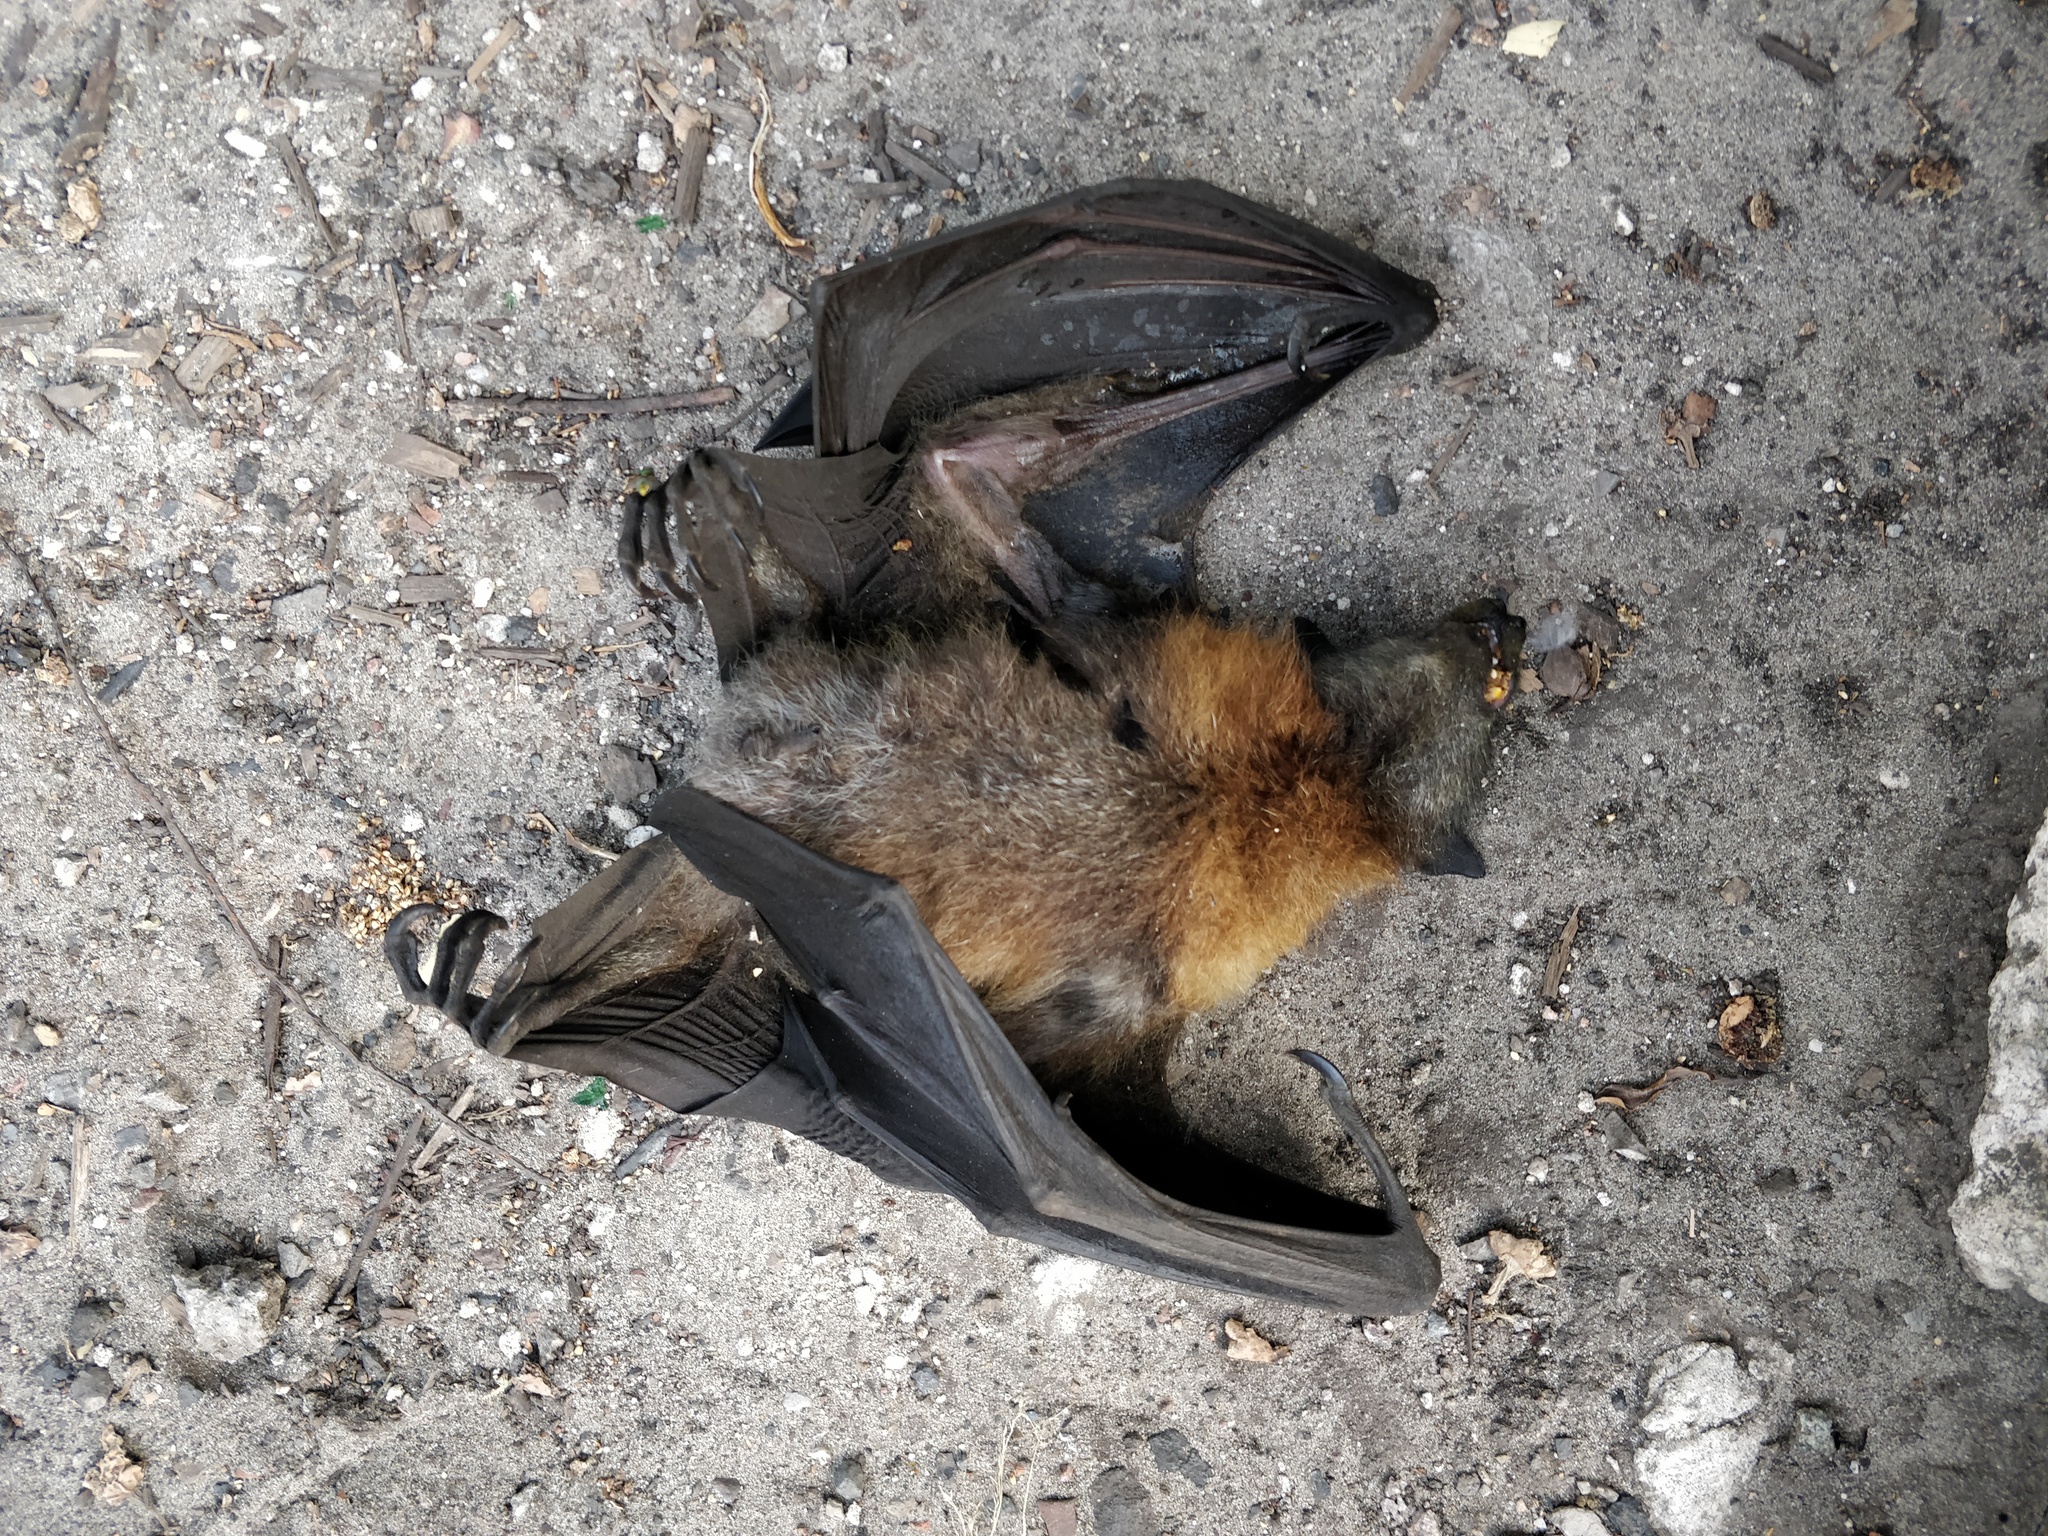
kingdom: Animalia
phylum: Chordata
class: Mammalia
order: Chiroptera
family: Pteropodidae
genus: Pteropus
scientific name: Pteropus poliocephalus
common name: Gray-headed flying fox
